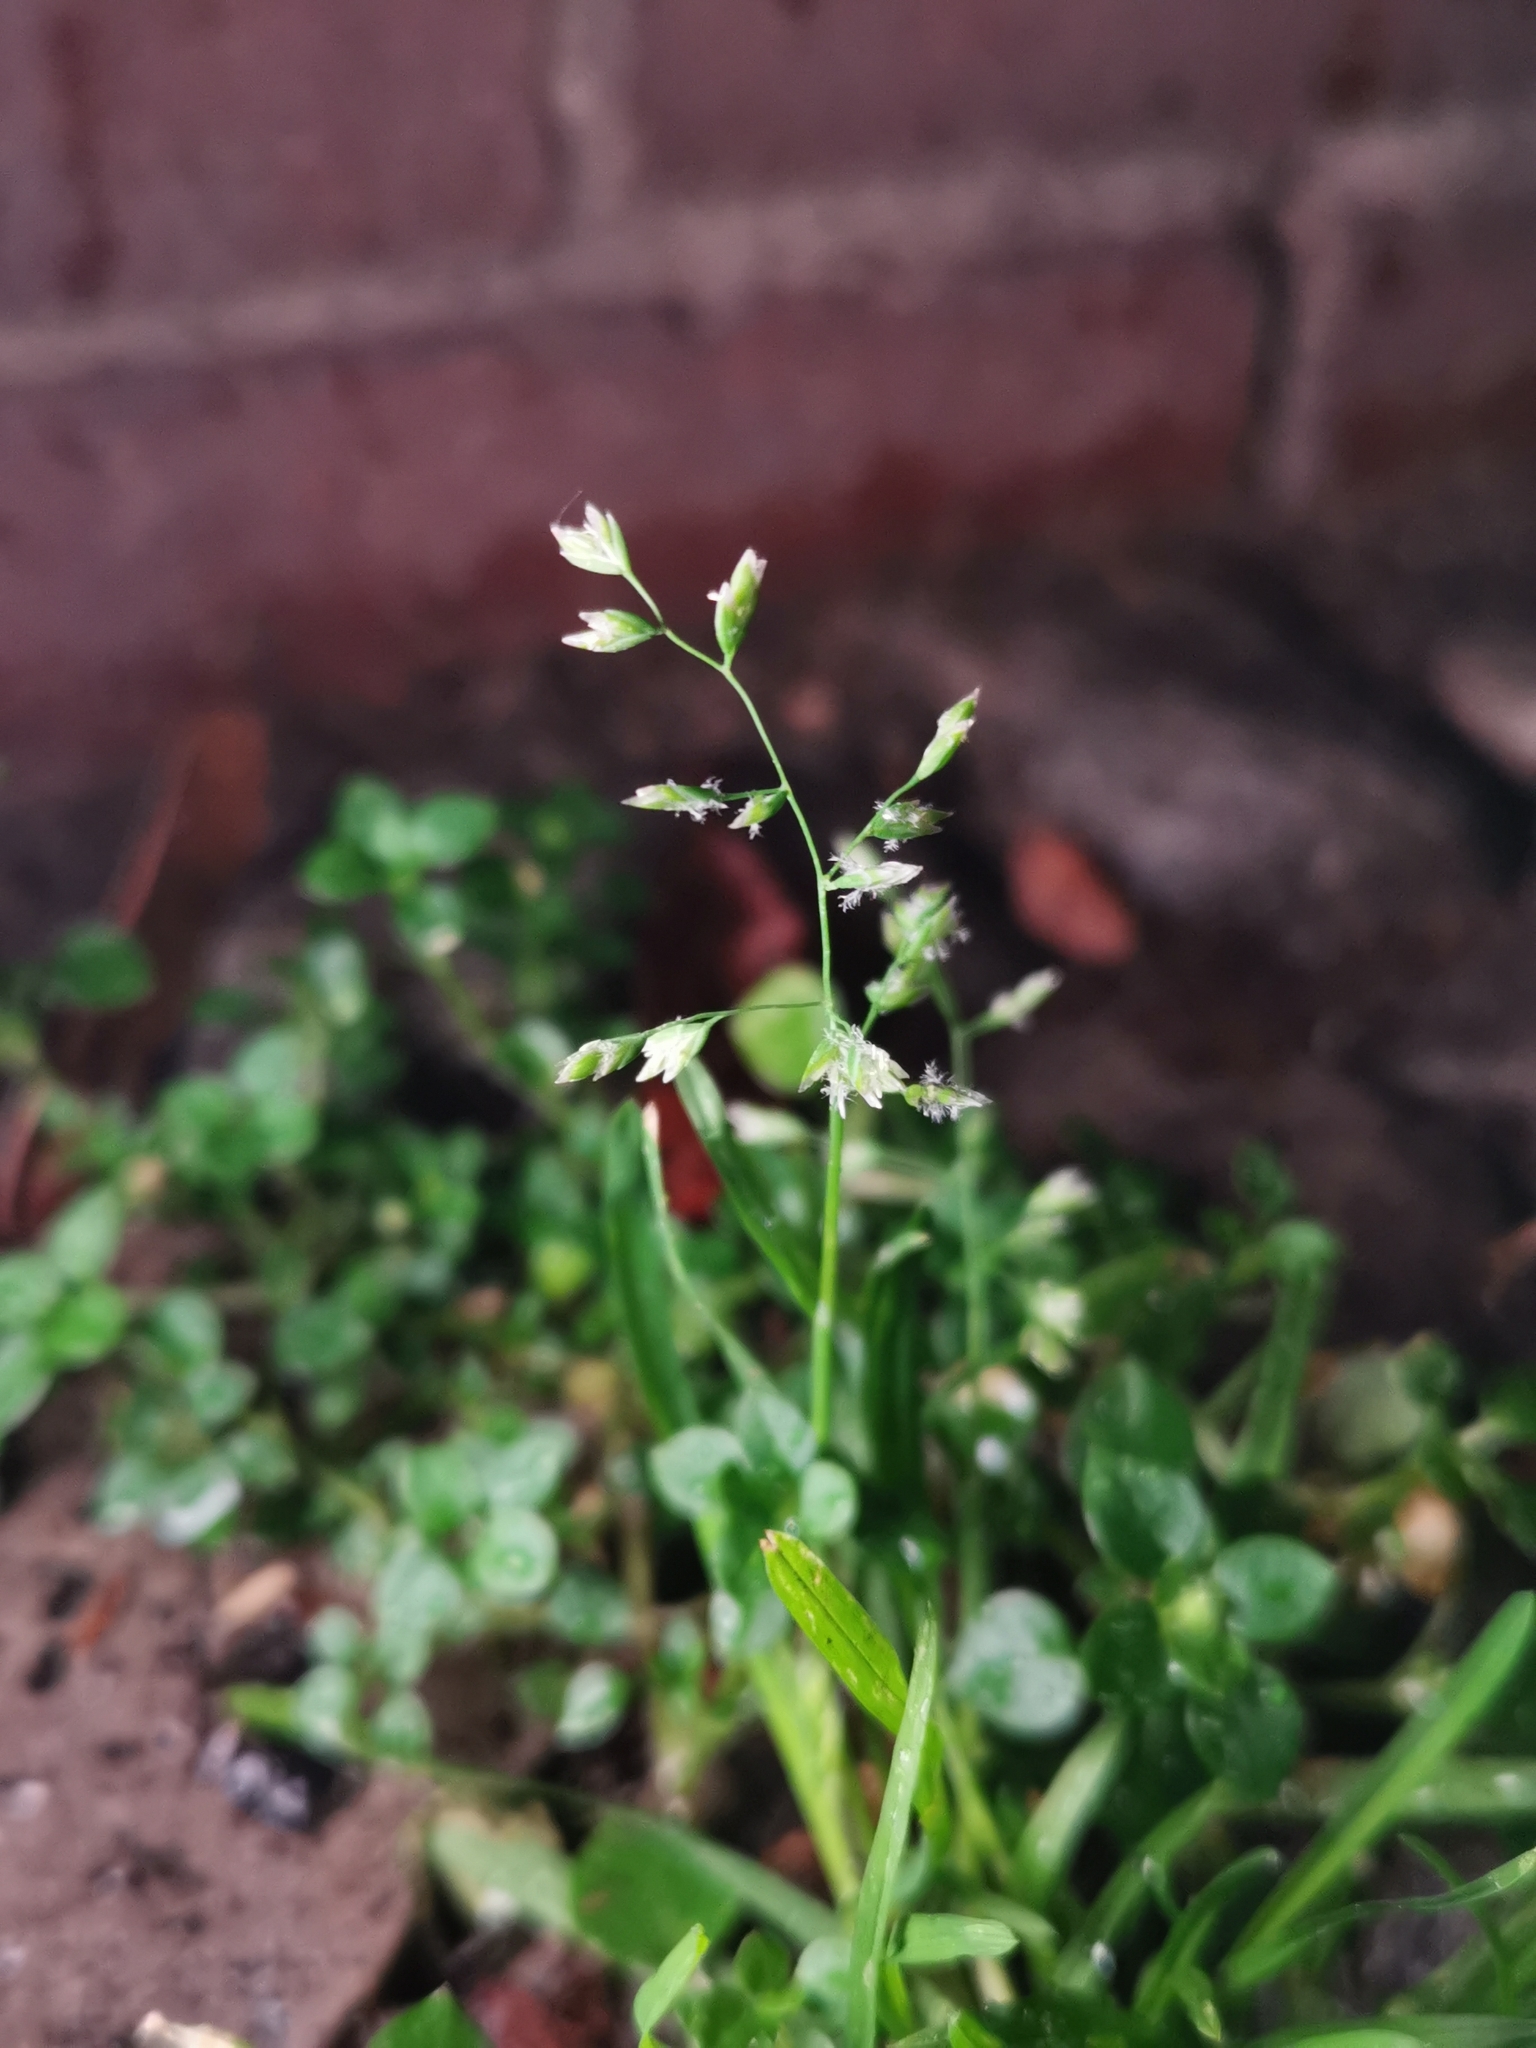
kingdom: Plantae
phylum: Tracheophyta
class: Liliopsida
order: Poales
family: Poaceae
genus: Poa
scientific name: Poa annua
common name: Annual bluegrass
